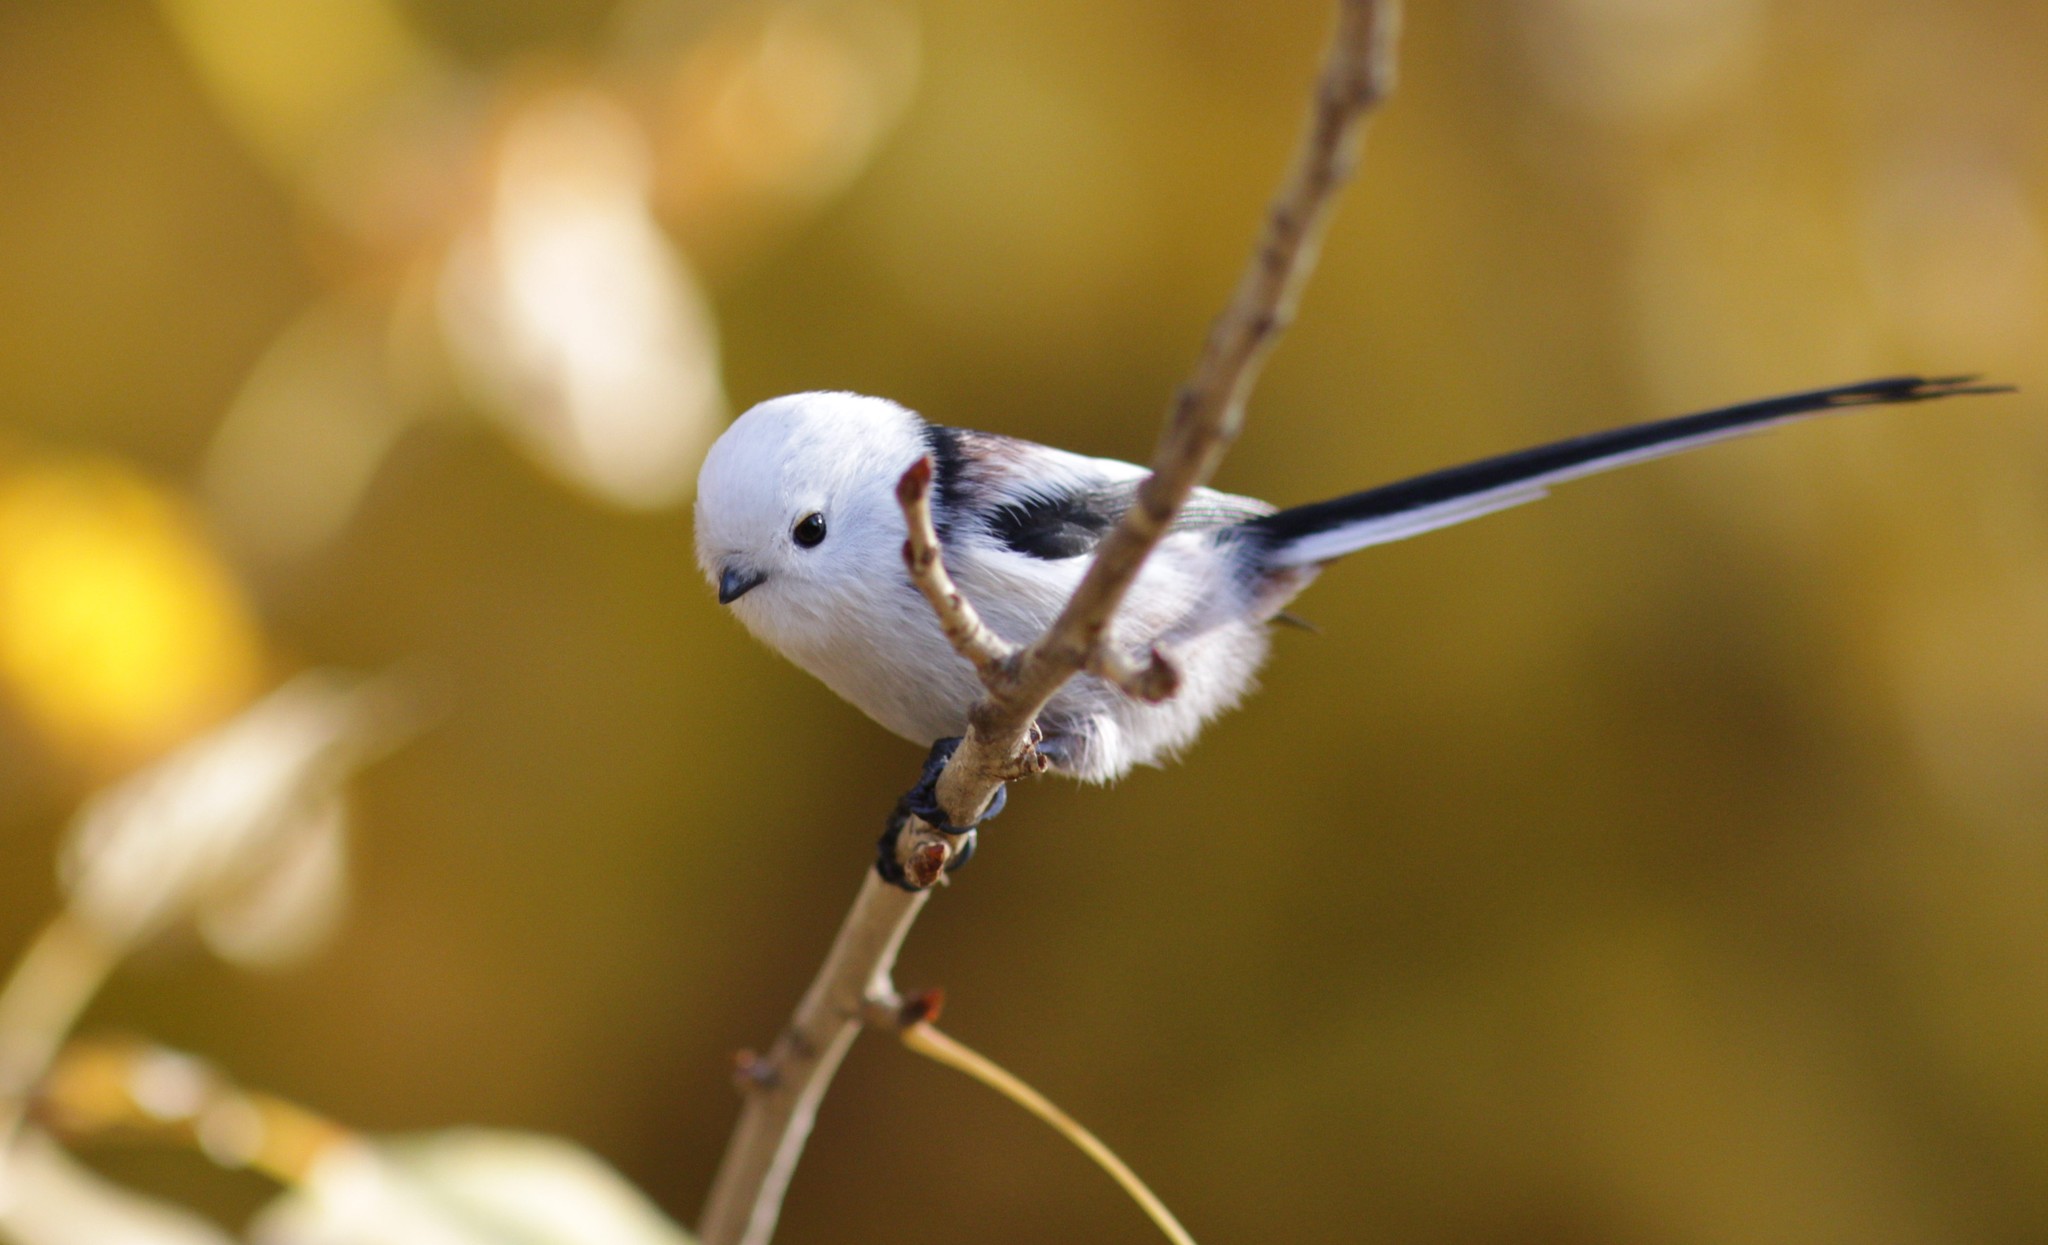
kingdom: Animalia
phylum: Chordata
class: Aves
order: Passeriformes
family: Aegithalidae
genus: Aegithalos
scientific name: Aegithalos caudatus
